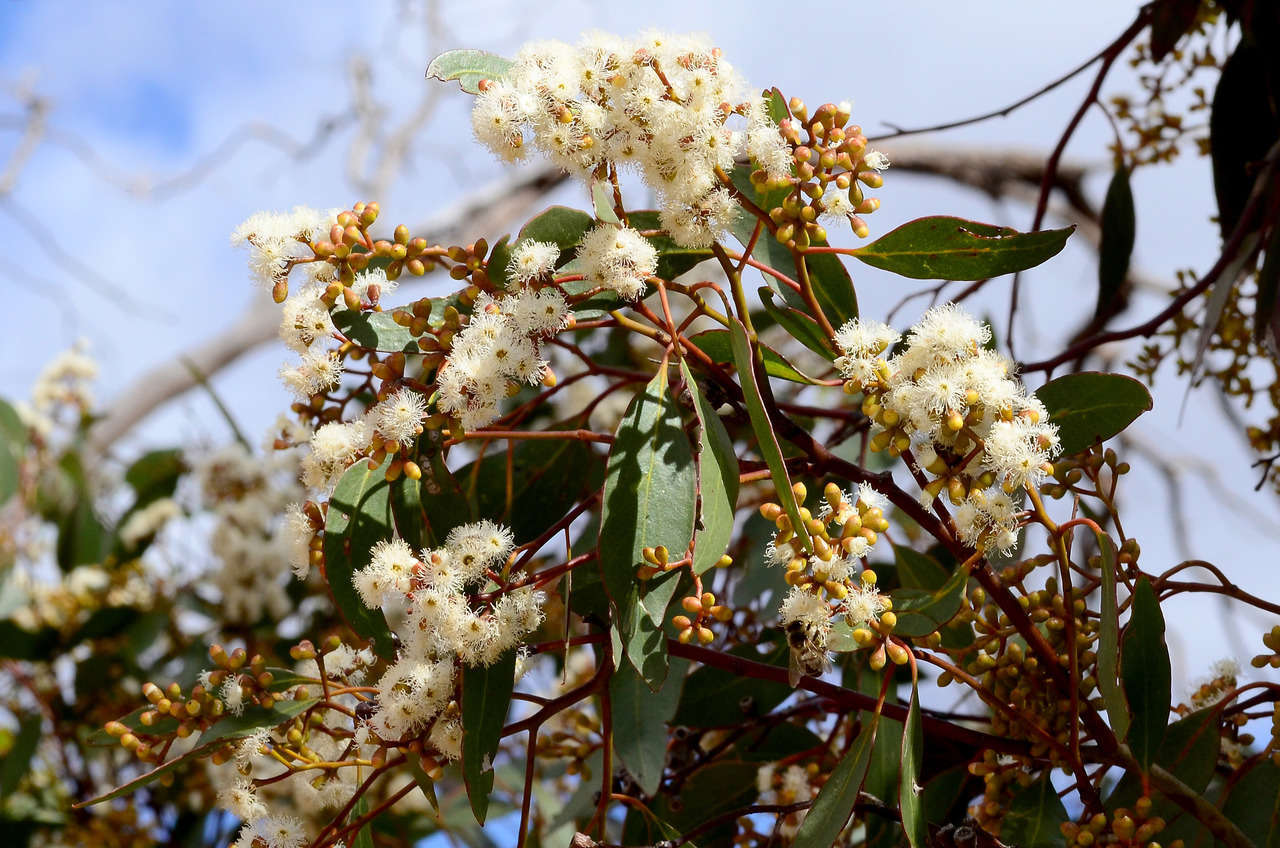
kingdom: Plantae
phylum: Tracheophyta
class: Magnoliopsida
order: Myrtales
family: Myrtaceae
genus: Eucalyptus
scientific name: Eucalyptus behriana
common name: Bull mallee
